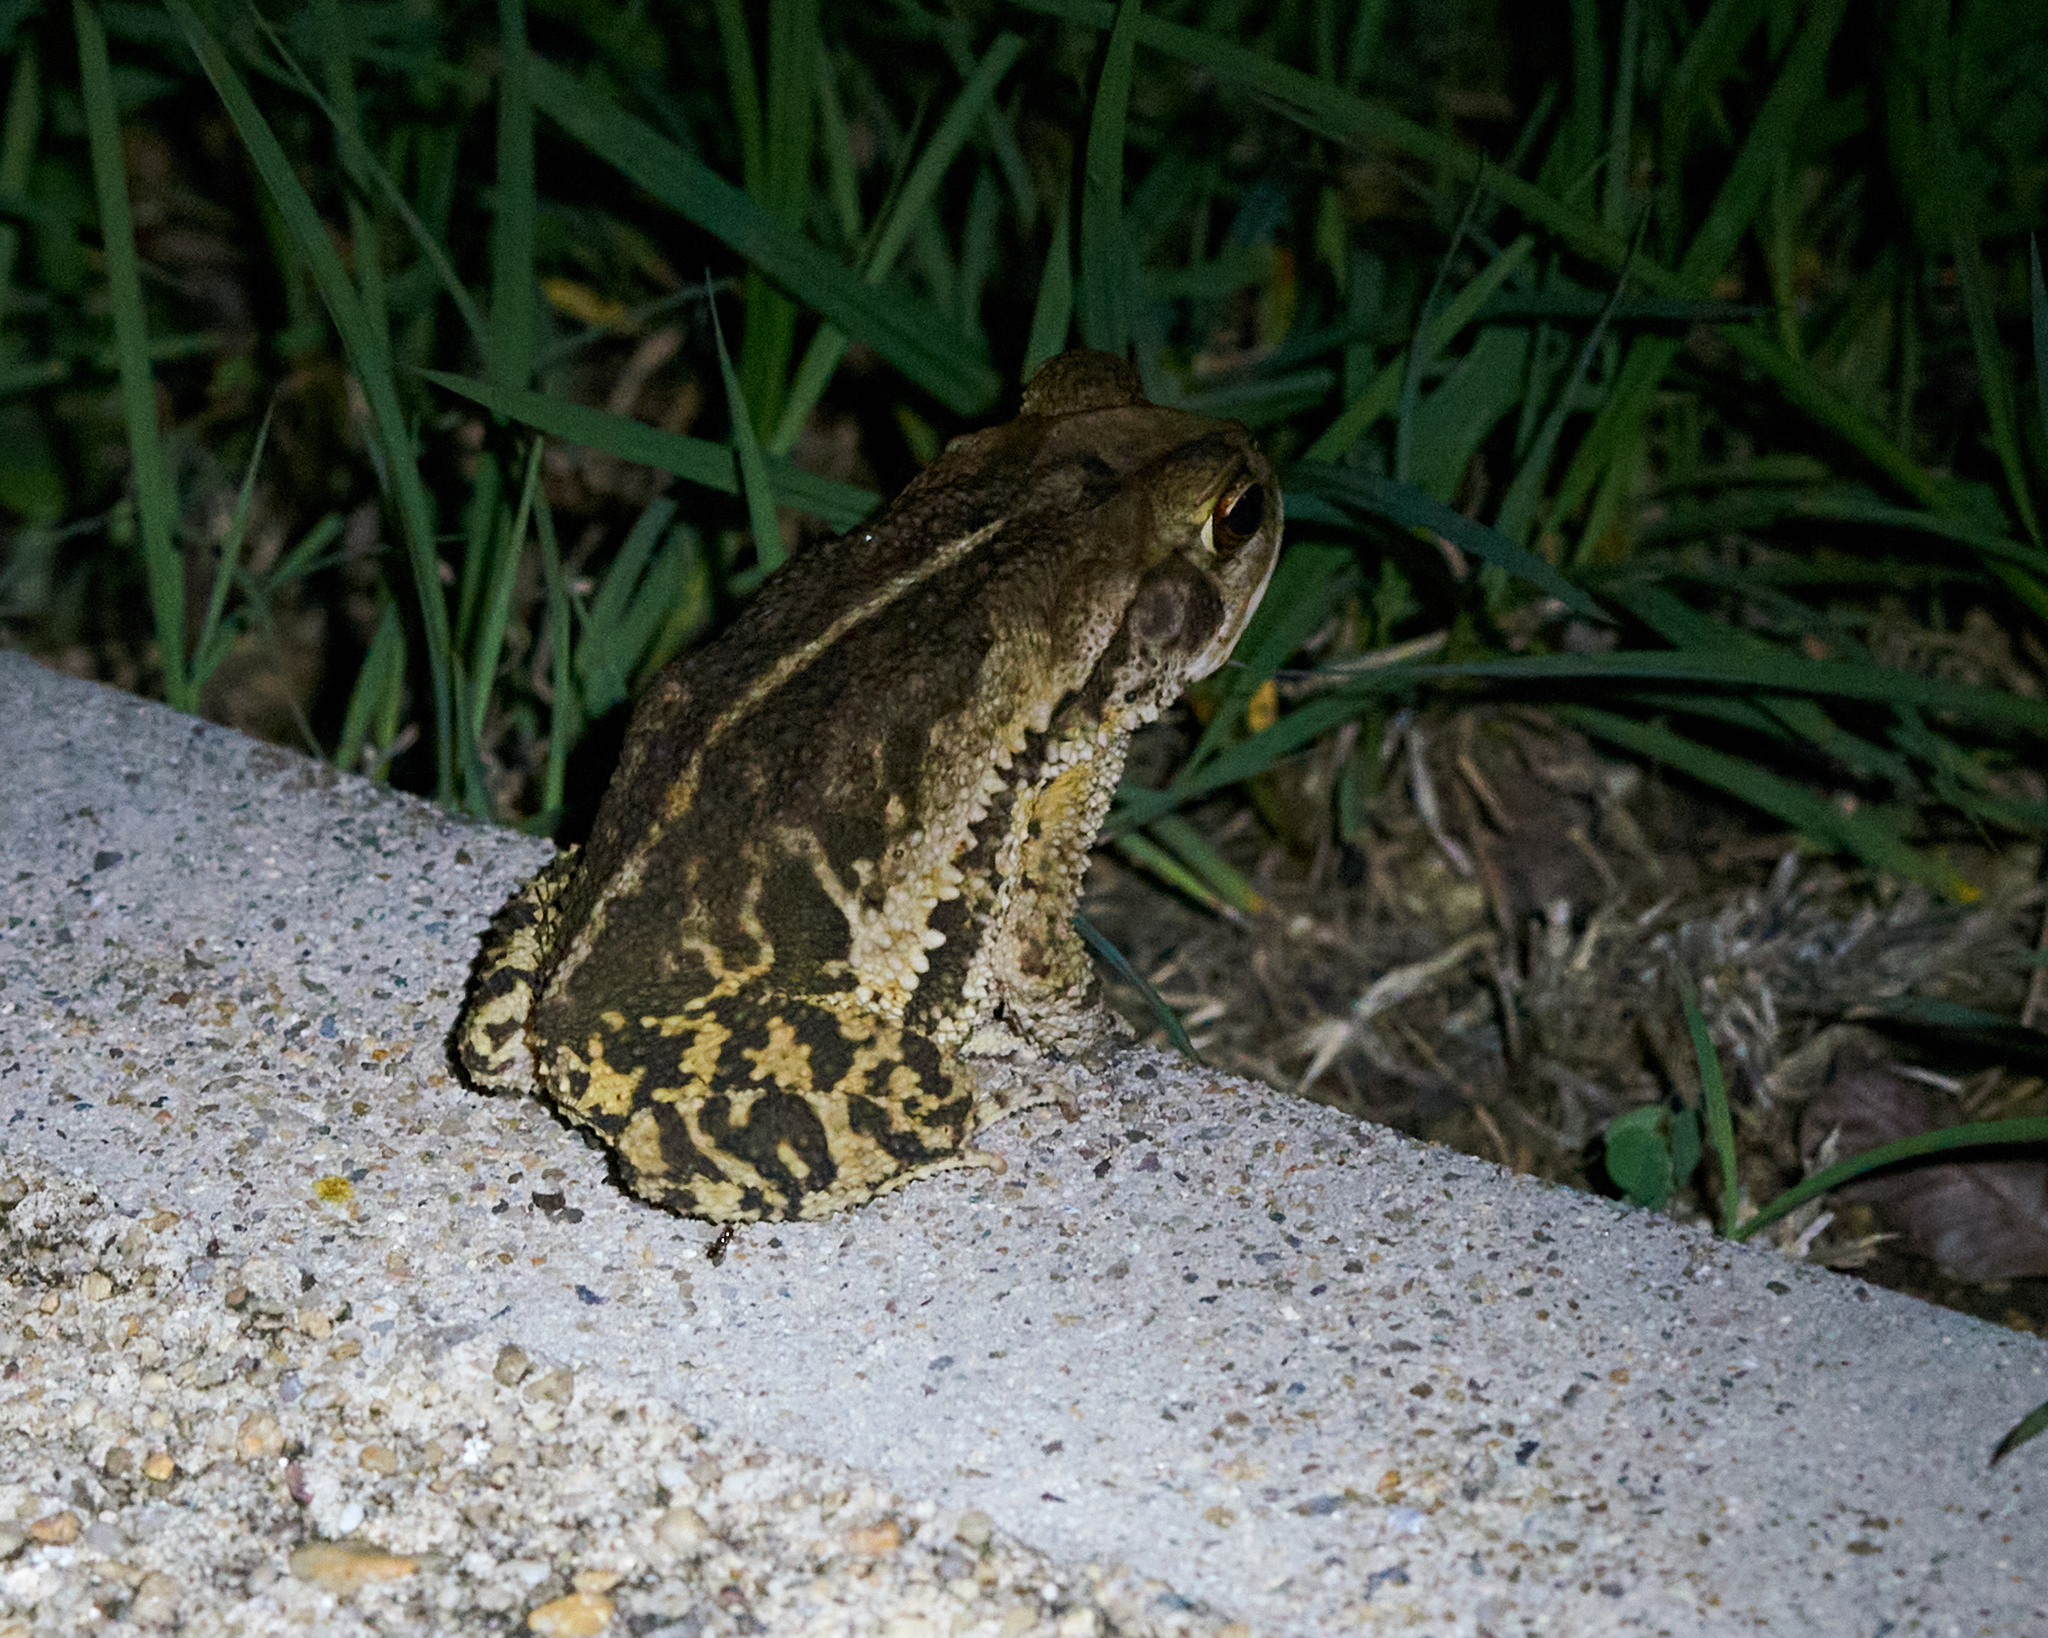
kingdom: Animalia
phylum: Chordata
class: Amphibia
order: Anura
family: Bufonidae
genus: Incilius
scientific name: Incilius valliceps
